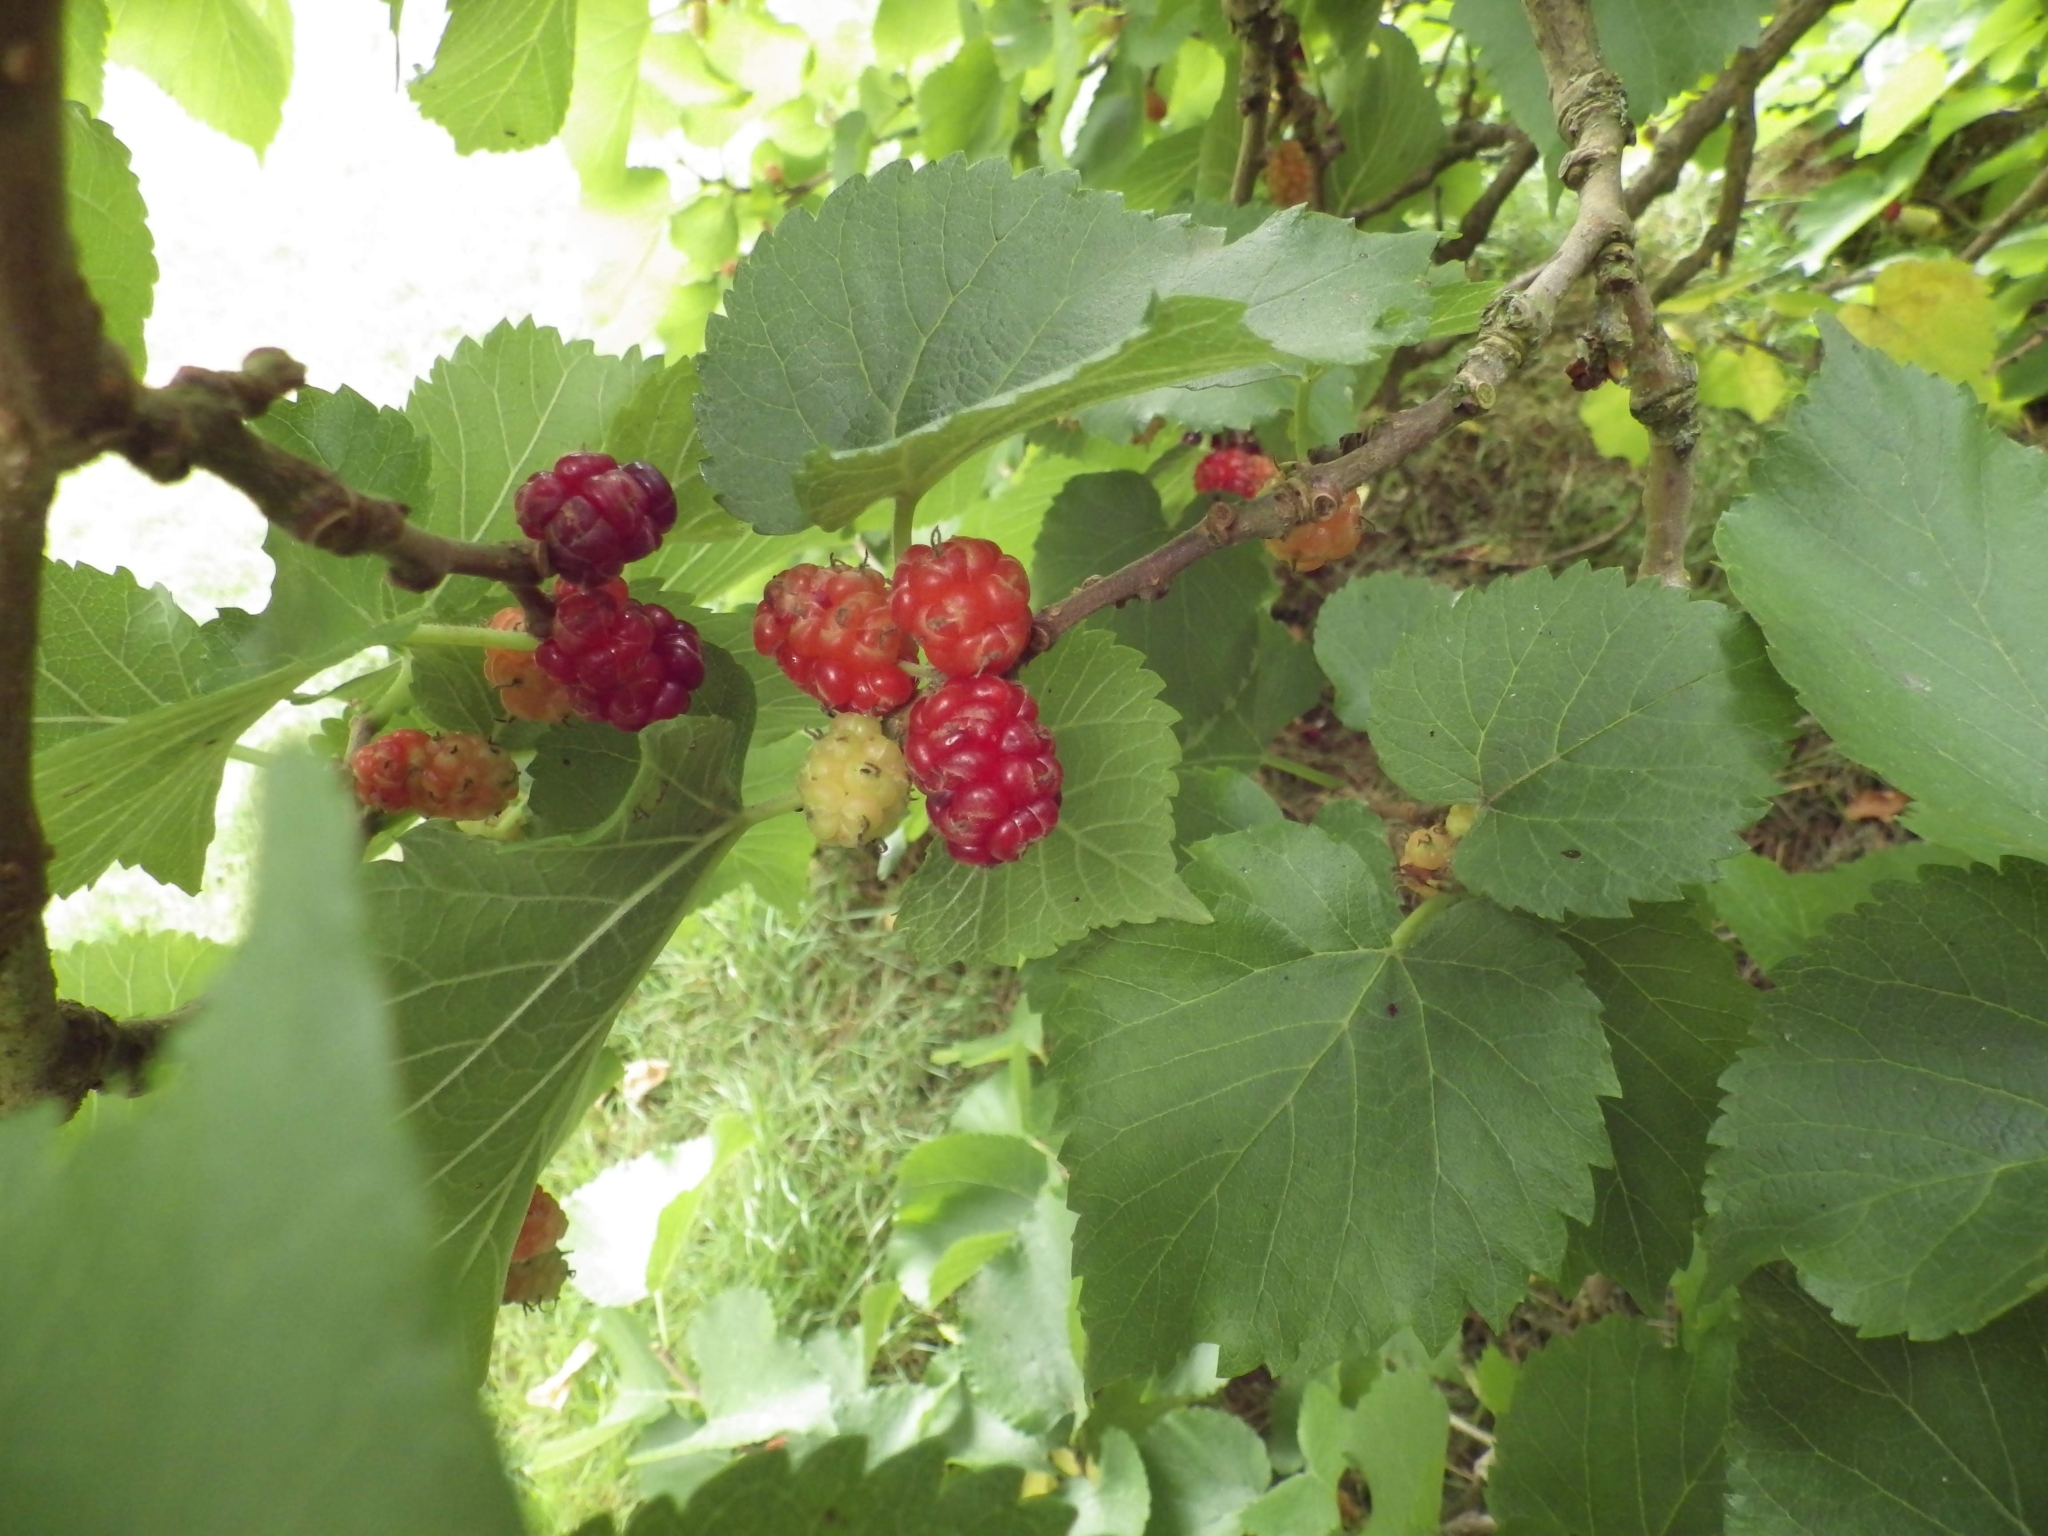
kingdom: Plantae
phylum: Tracheophyta
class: Magnoliopsida
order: Rosales
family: Moraceae
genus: Morus
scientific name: Morus nigra
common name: Black mulberry
